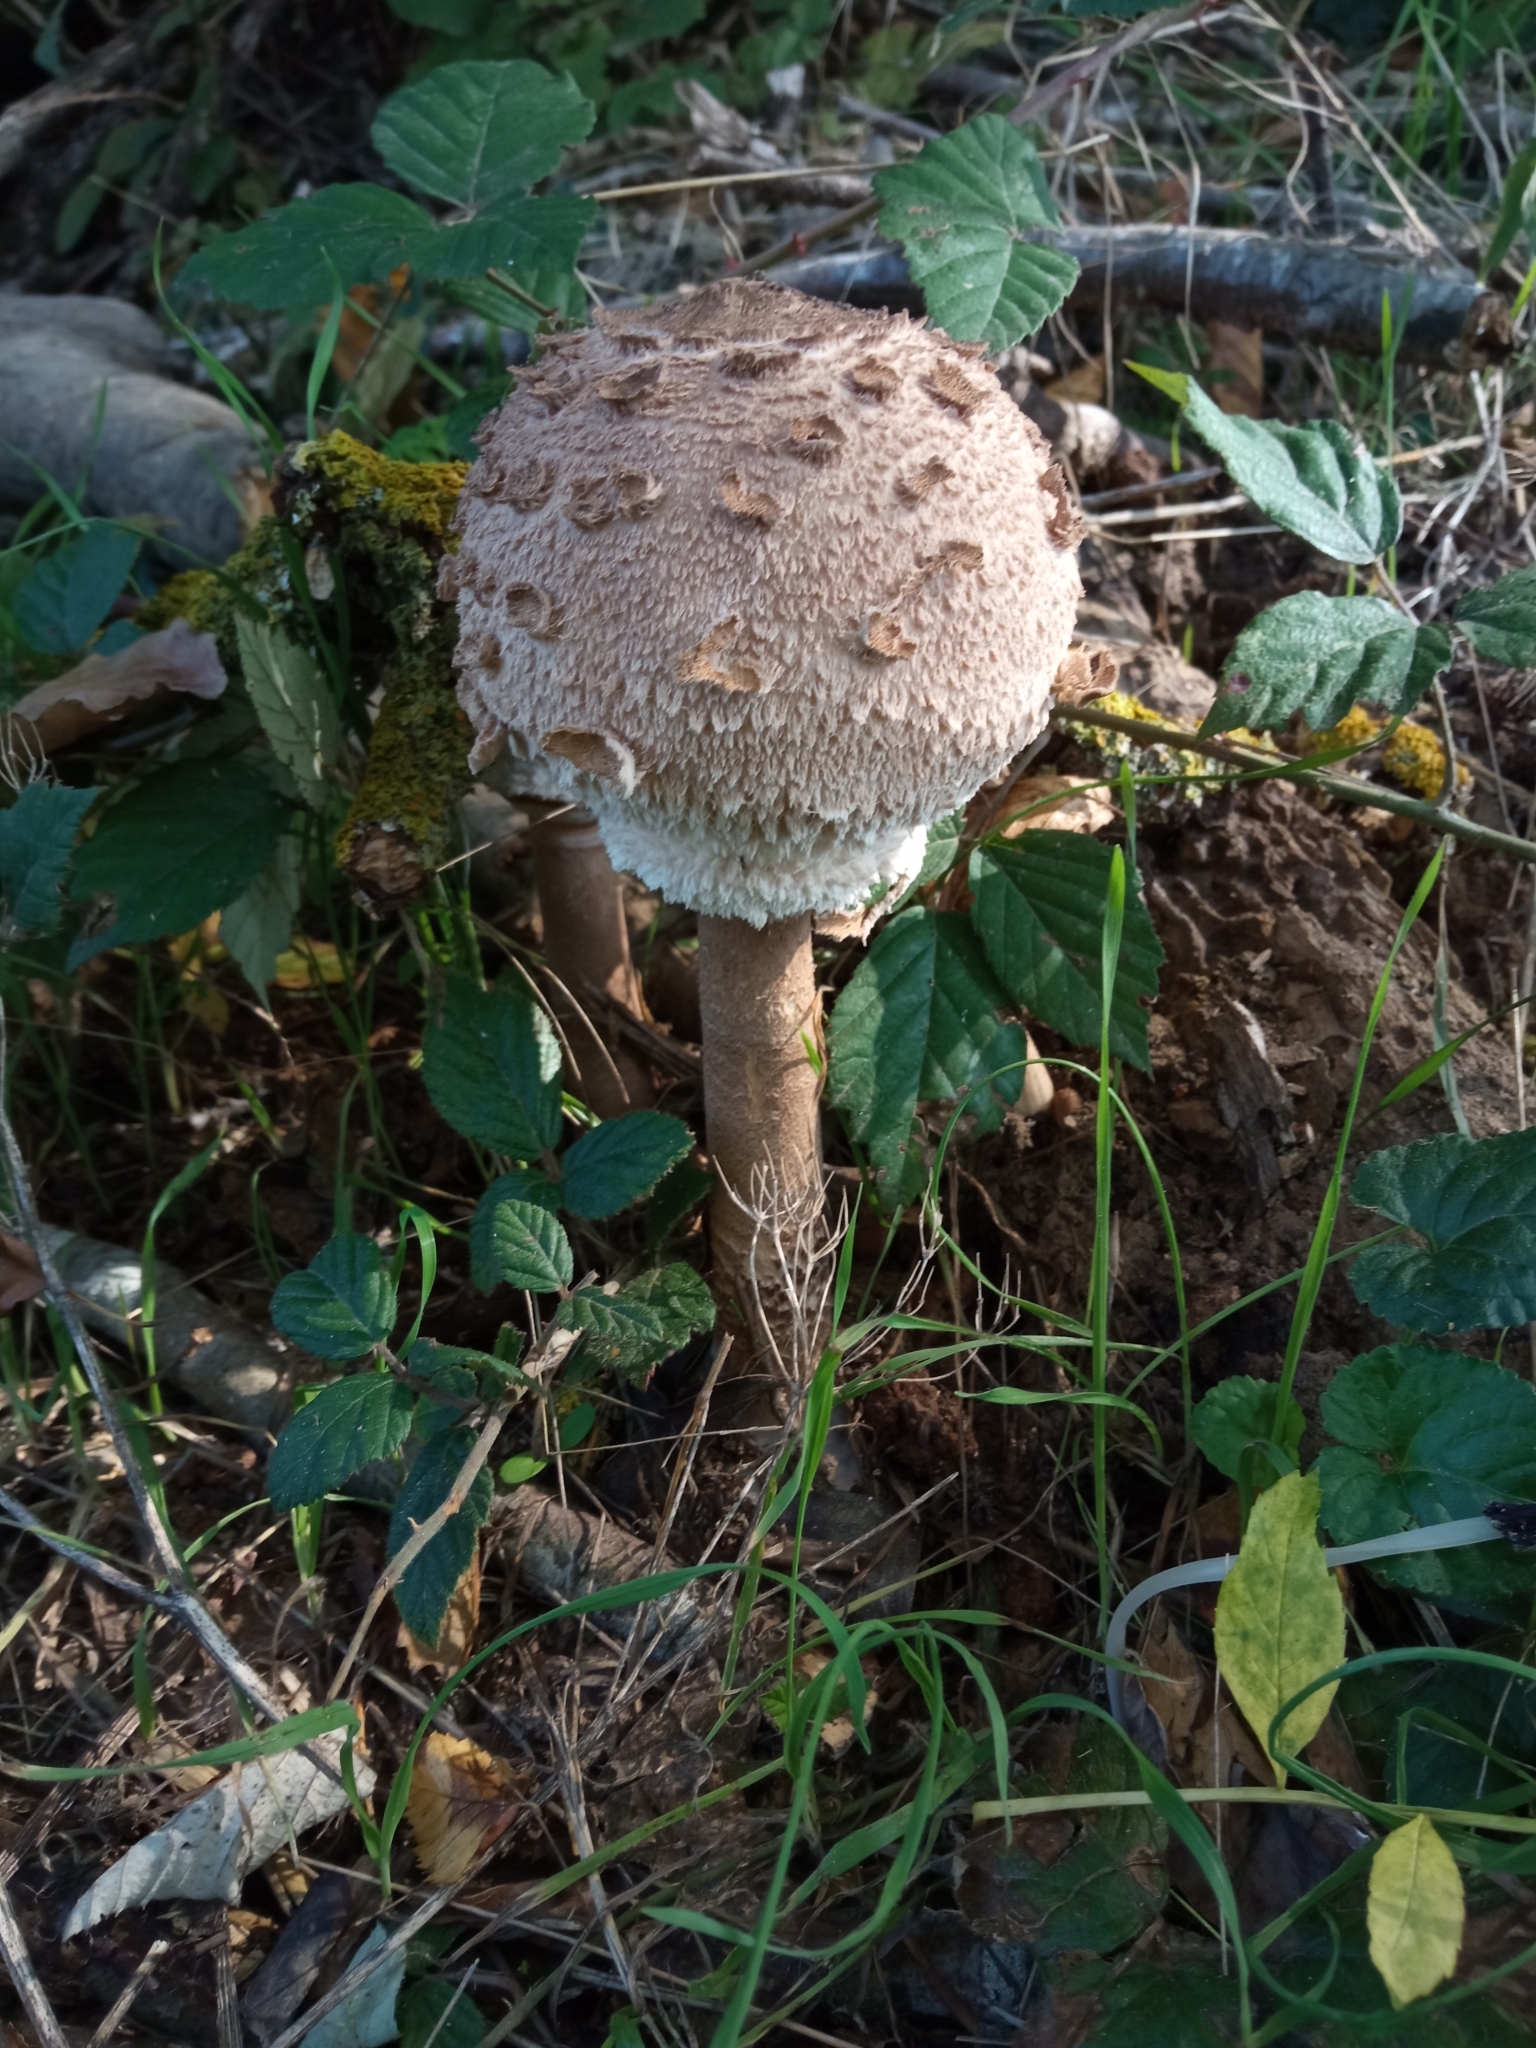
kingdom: Fungi
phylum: Basidiomycota
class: Agaricomycetes
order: Agaricales
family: Agaricaceae
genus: Macrolepiota
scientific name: Macrolepiota procera
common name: Parasol
